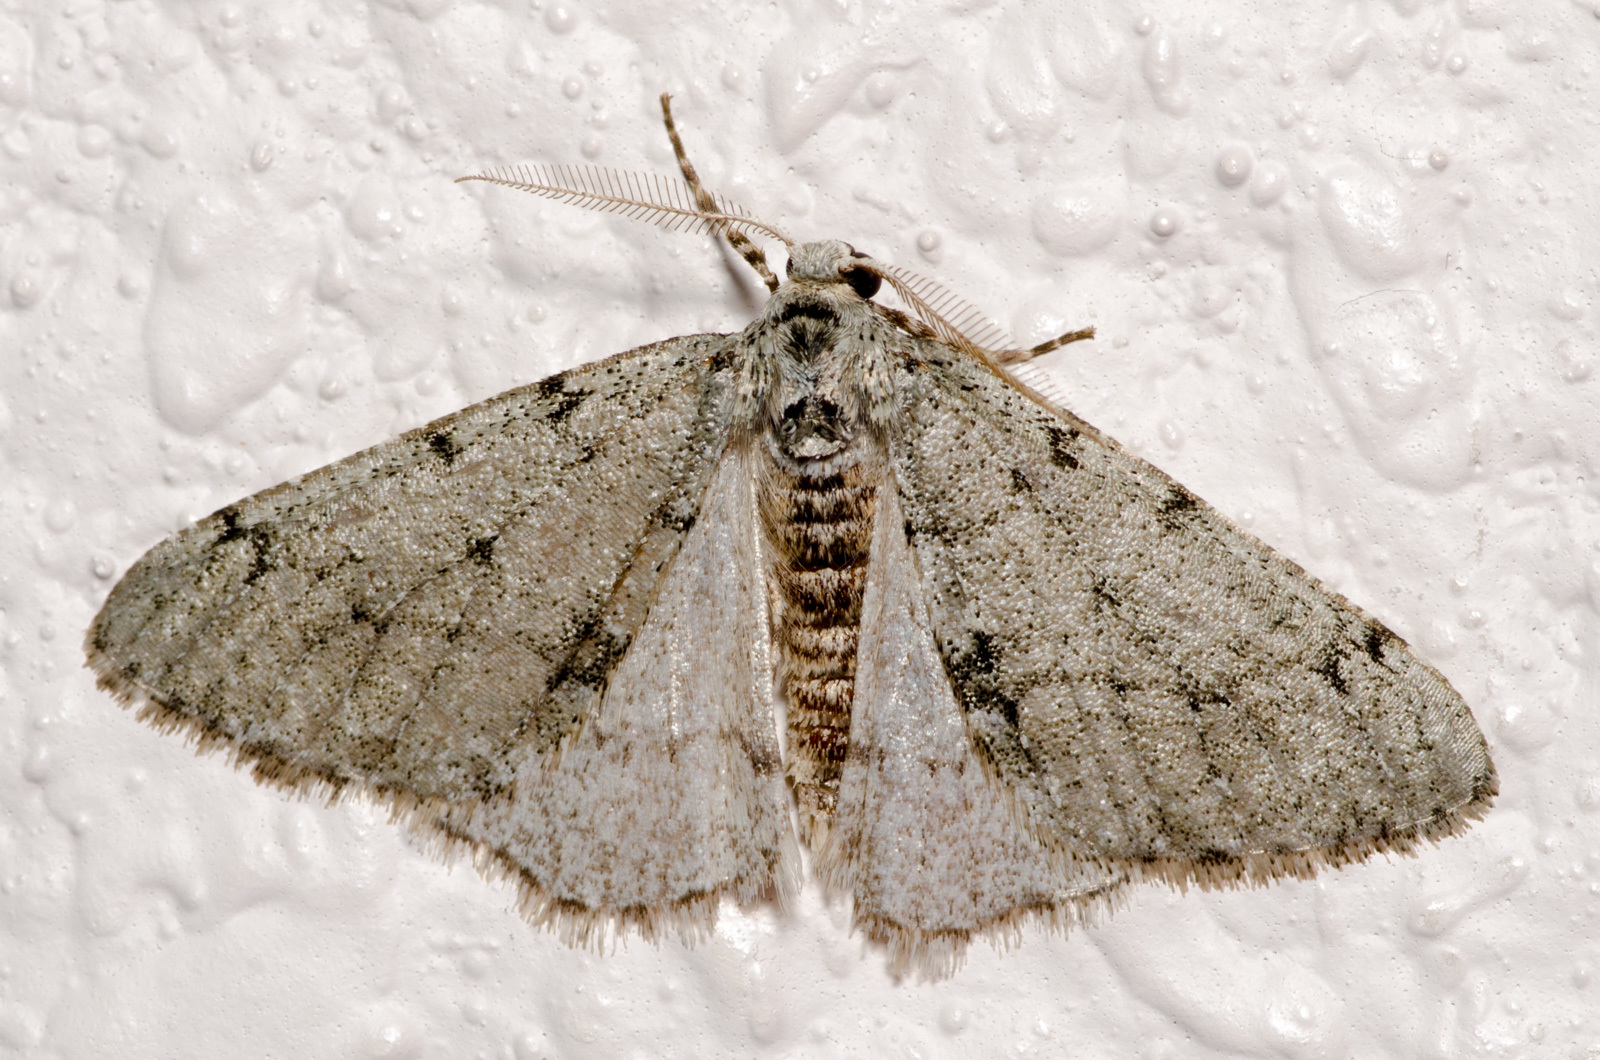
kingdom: Animalia
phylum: Arthropoda
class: Insecta
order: Lepidoptera
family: Geometridae
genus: Phigalia
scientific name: Phigalia strigataria
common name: Small phigalia
